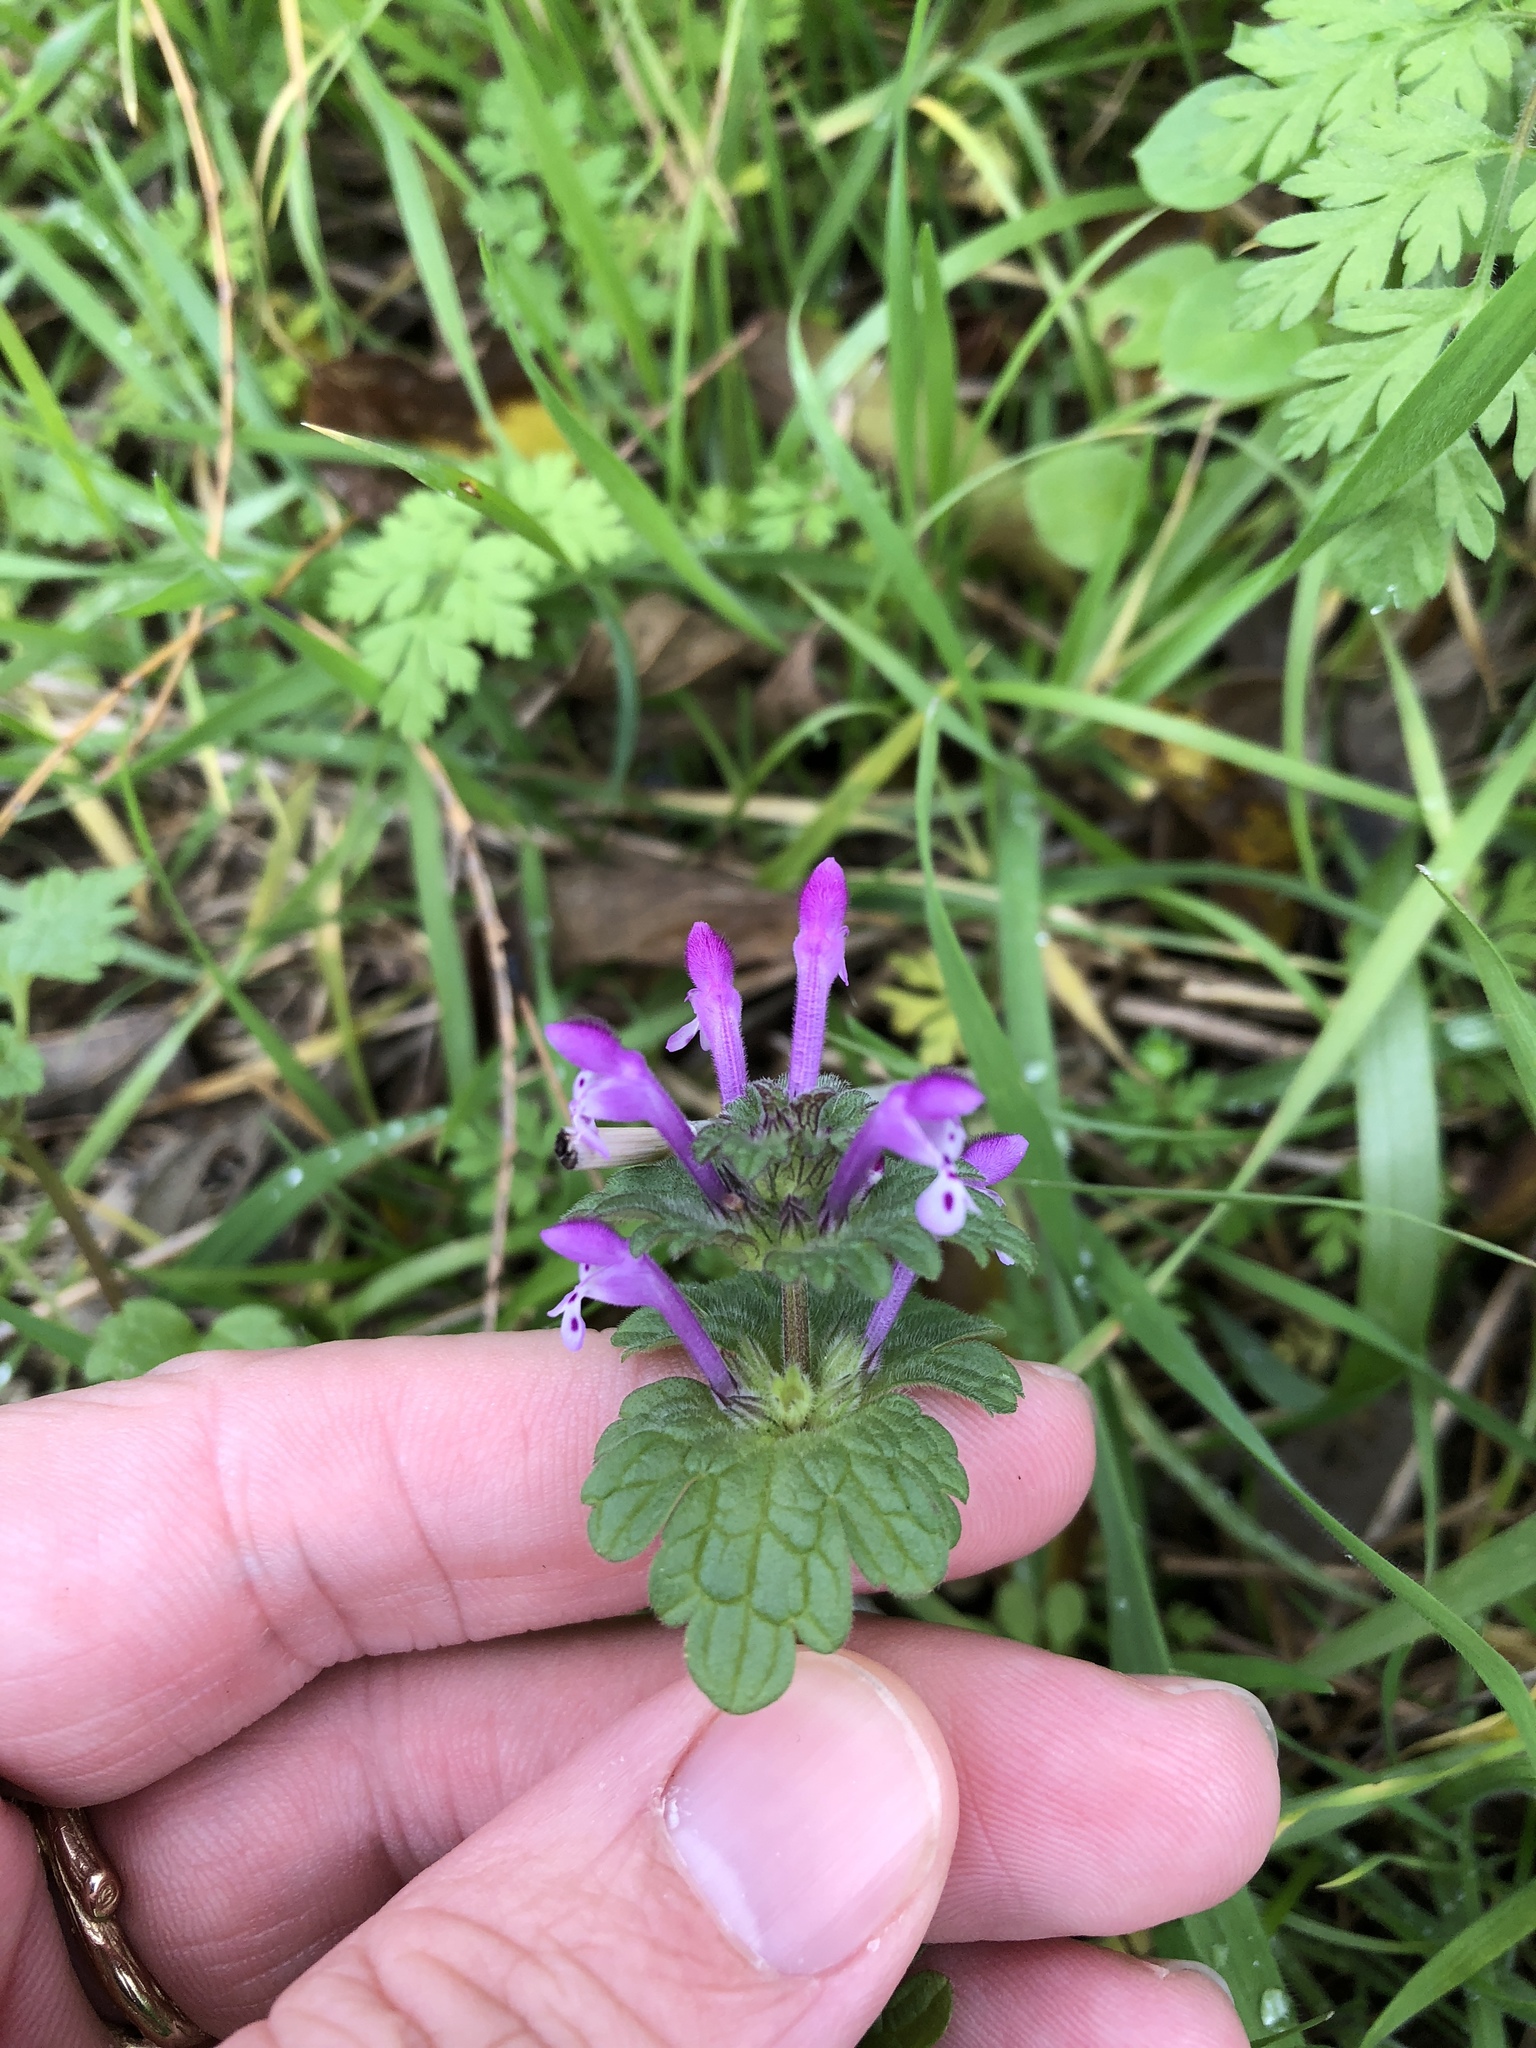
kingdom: Plantae
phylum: Tracheophyta
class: Magnoliopsida
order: Lamiales
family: Lamiaceae
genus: Lamium
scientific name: Lamium amplexicaule
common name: Henbit dead-nettle
